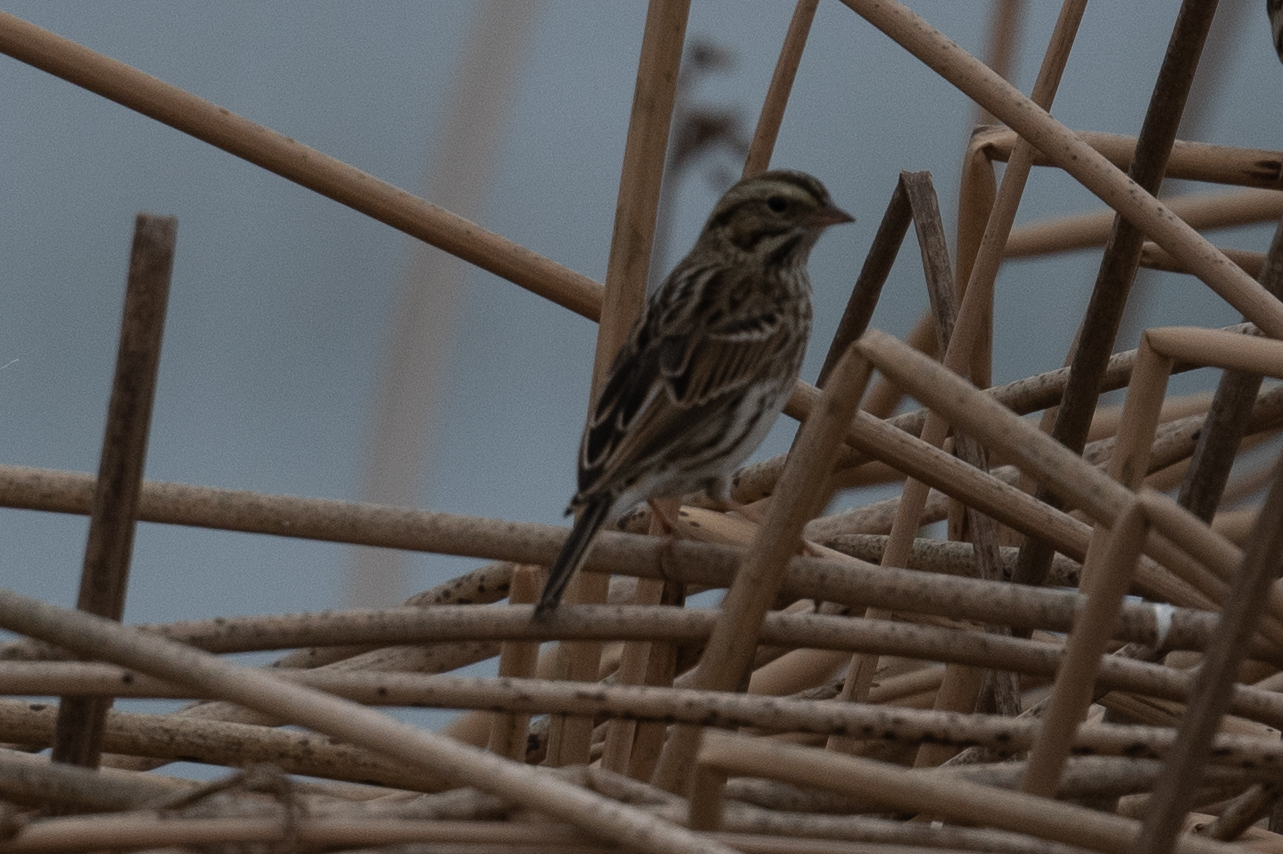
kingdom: Animalia
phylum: Chordata
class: Aves
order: Passeriformes
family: Passerellidae
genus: Passerculus
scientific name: Passerculus sandwichensis
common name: Savannah sparrow
